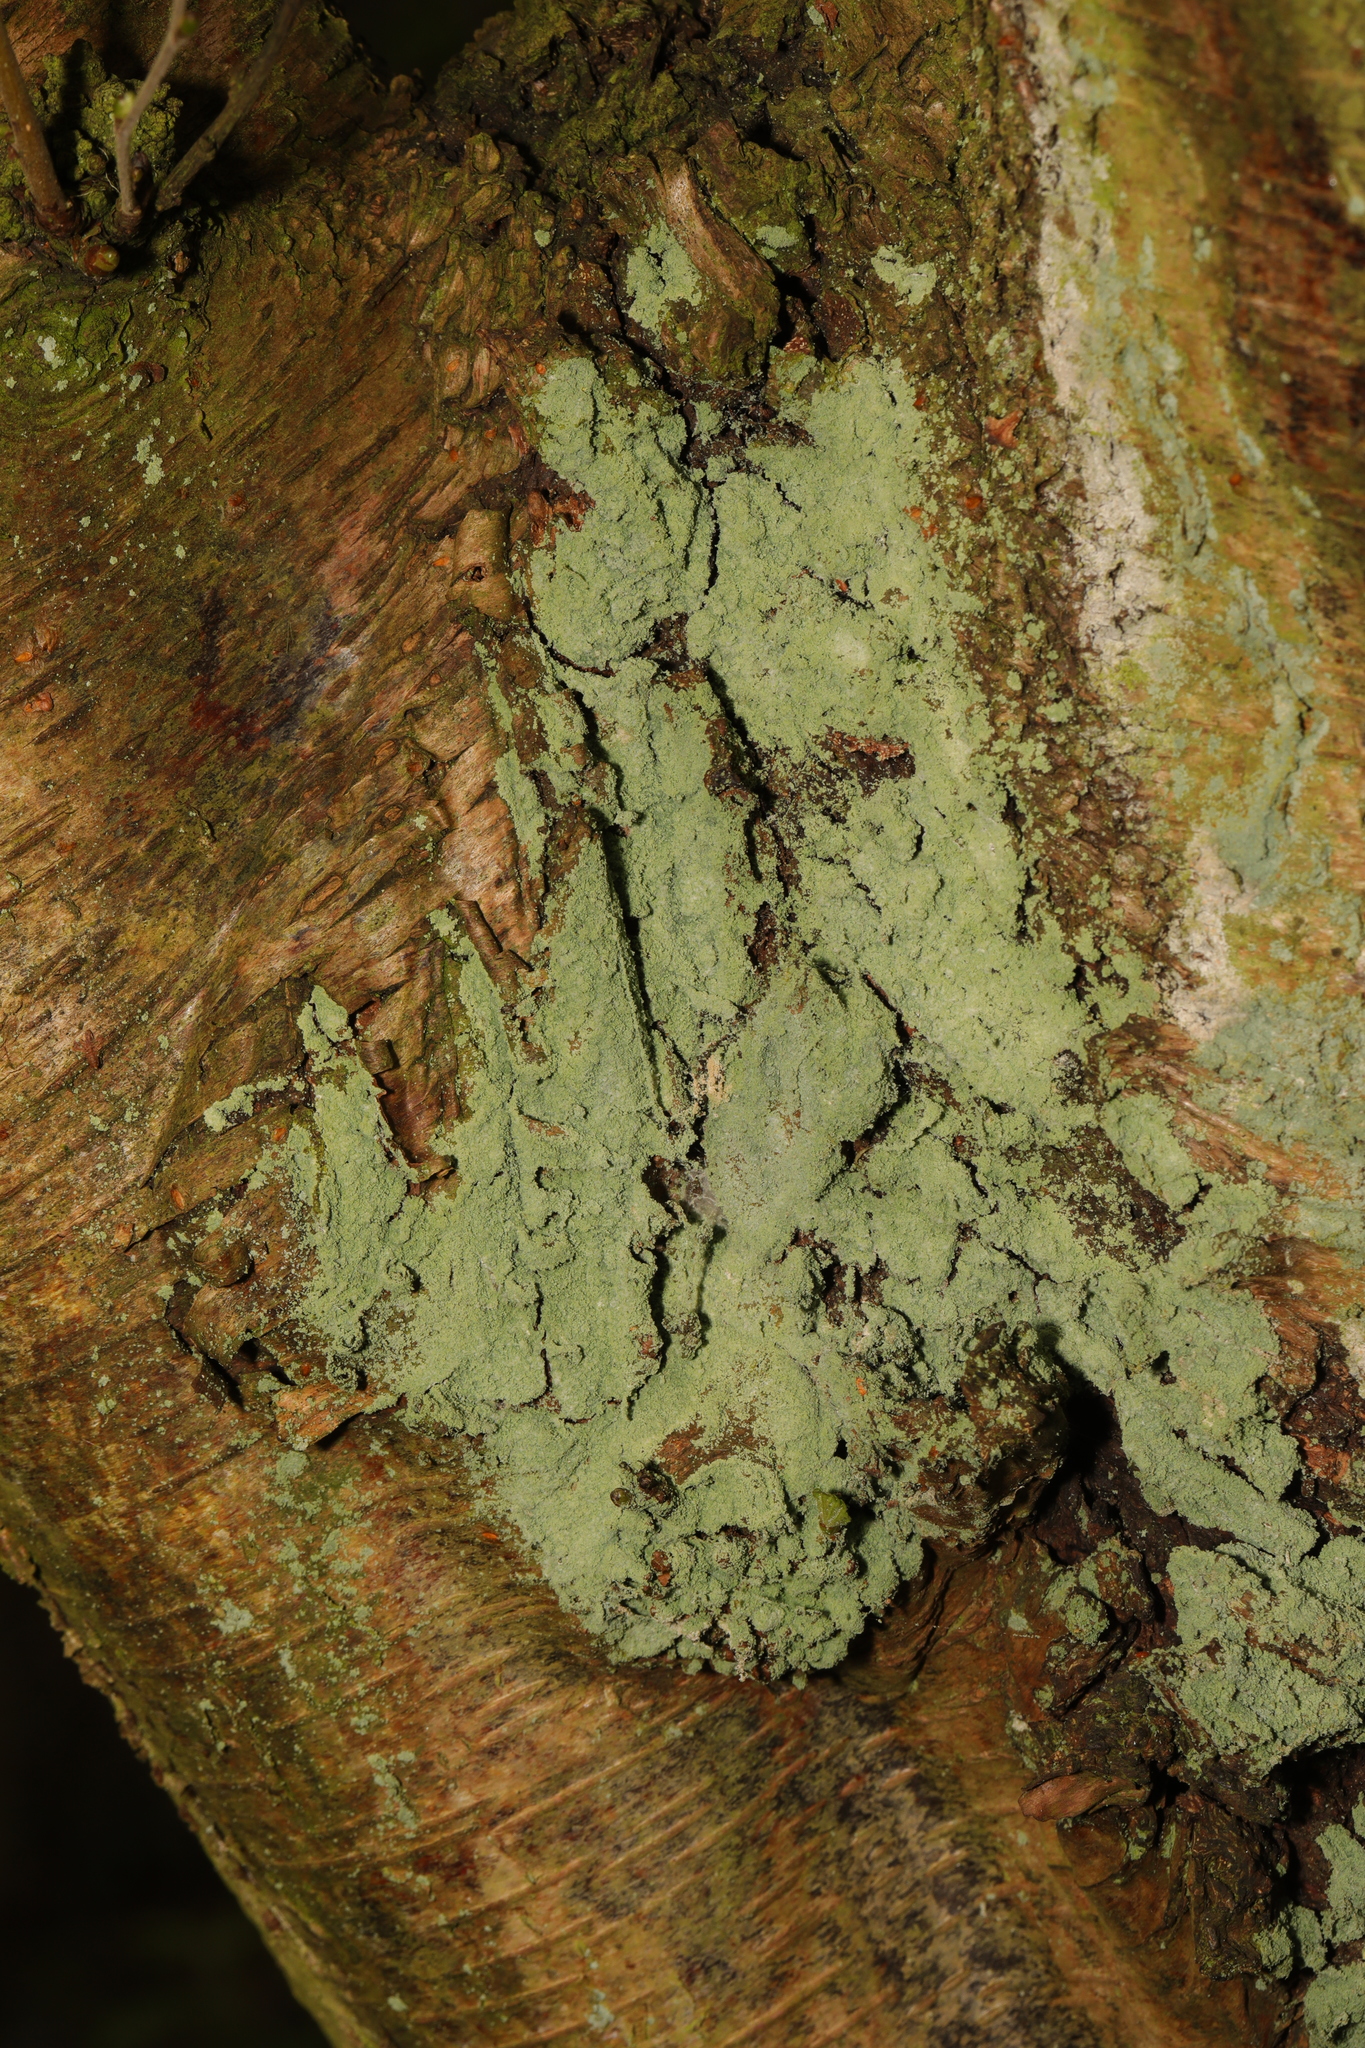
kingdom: Fungi
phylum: Ascomycota
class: Lecanoromycetes
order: Lecanorales
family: Stereocaulaceae
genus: Lepraria
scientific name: Lepraria
